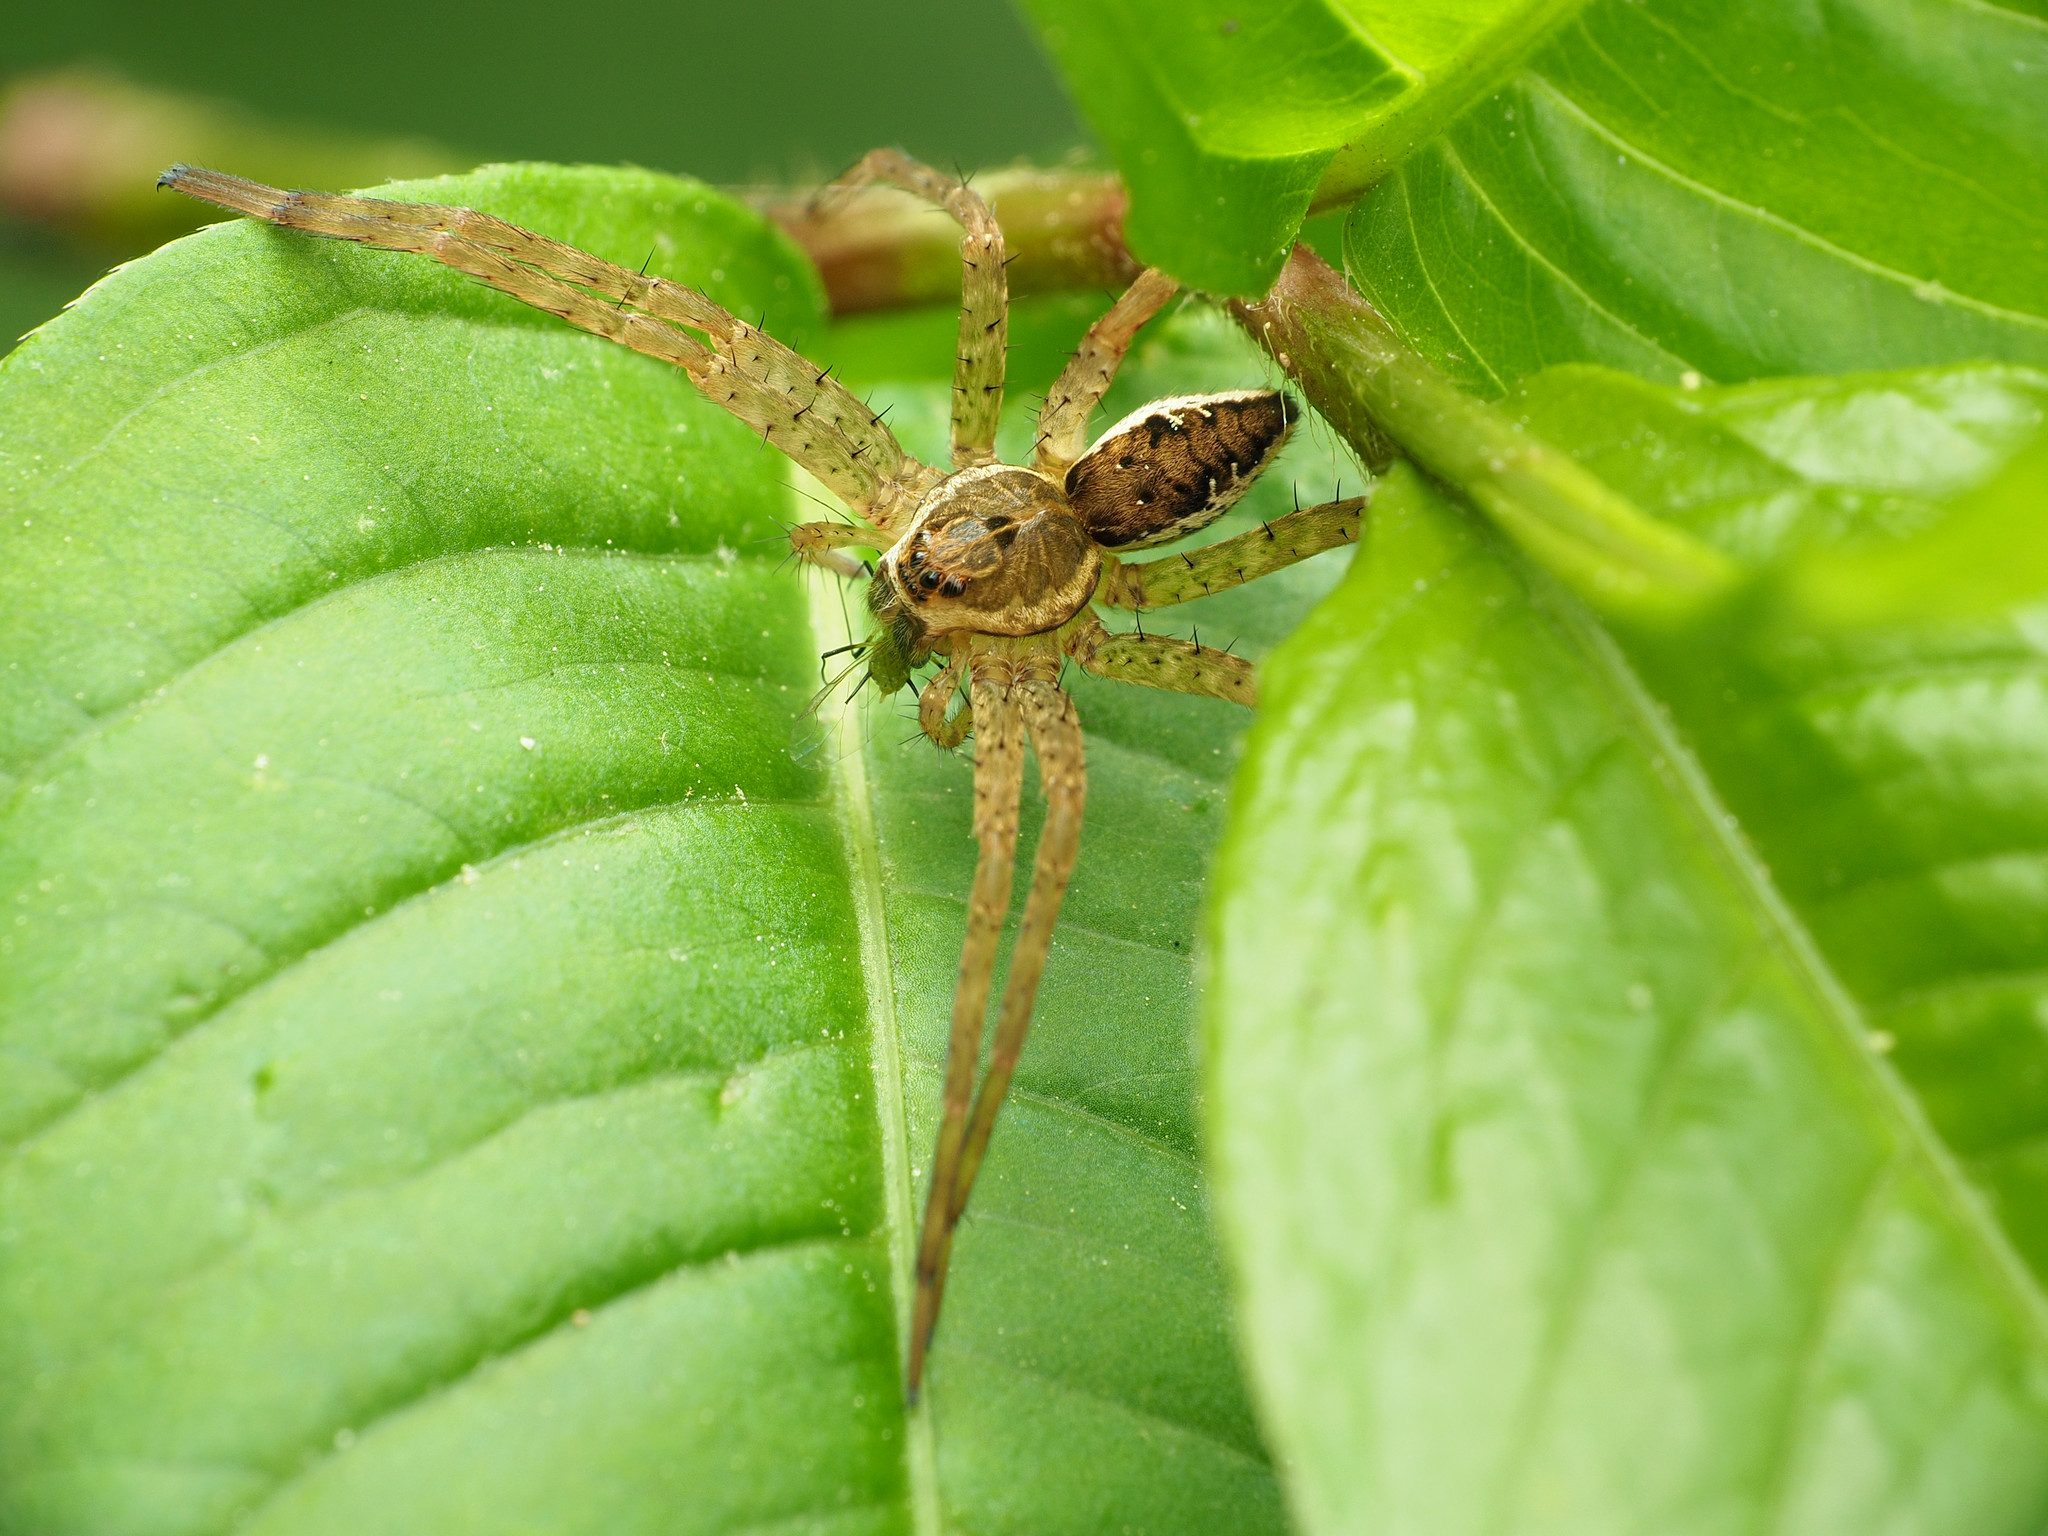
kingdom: Animalia
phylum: Arthropoda
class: Arachnida
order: Araneae
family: Pisauridae
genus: Dolomedes
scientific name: Dolomedes vittatus
